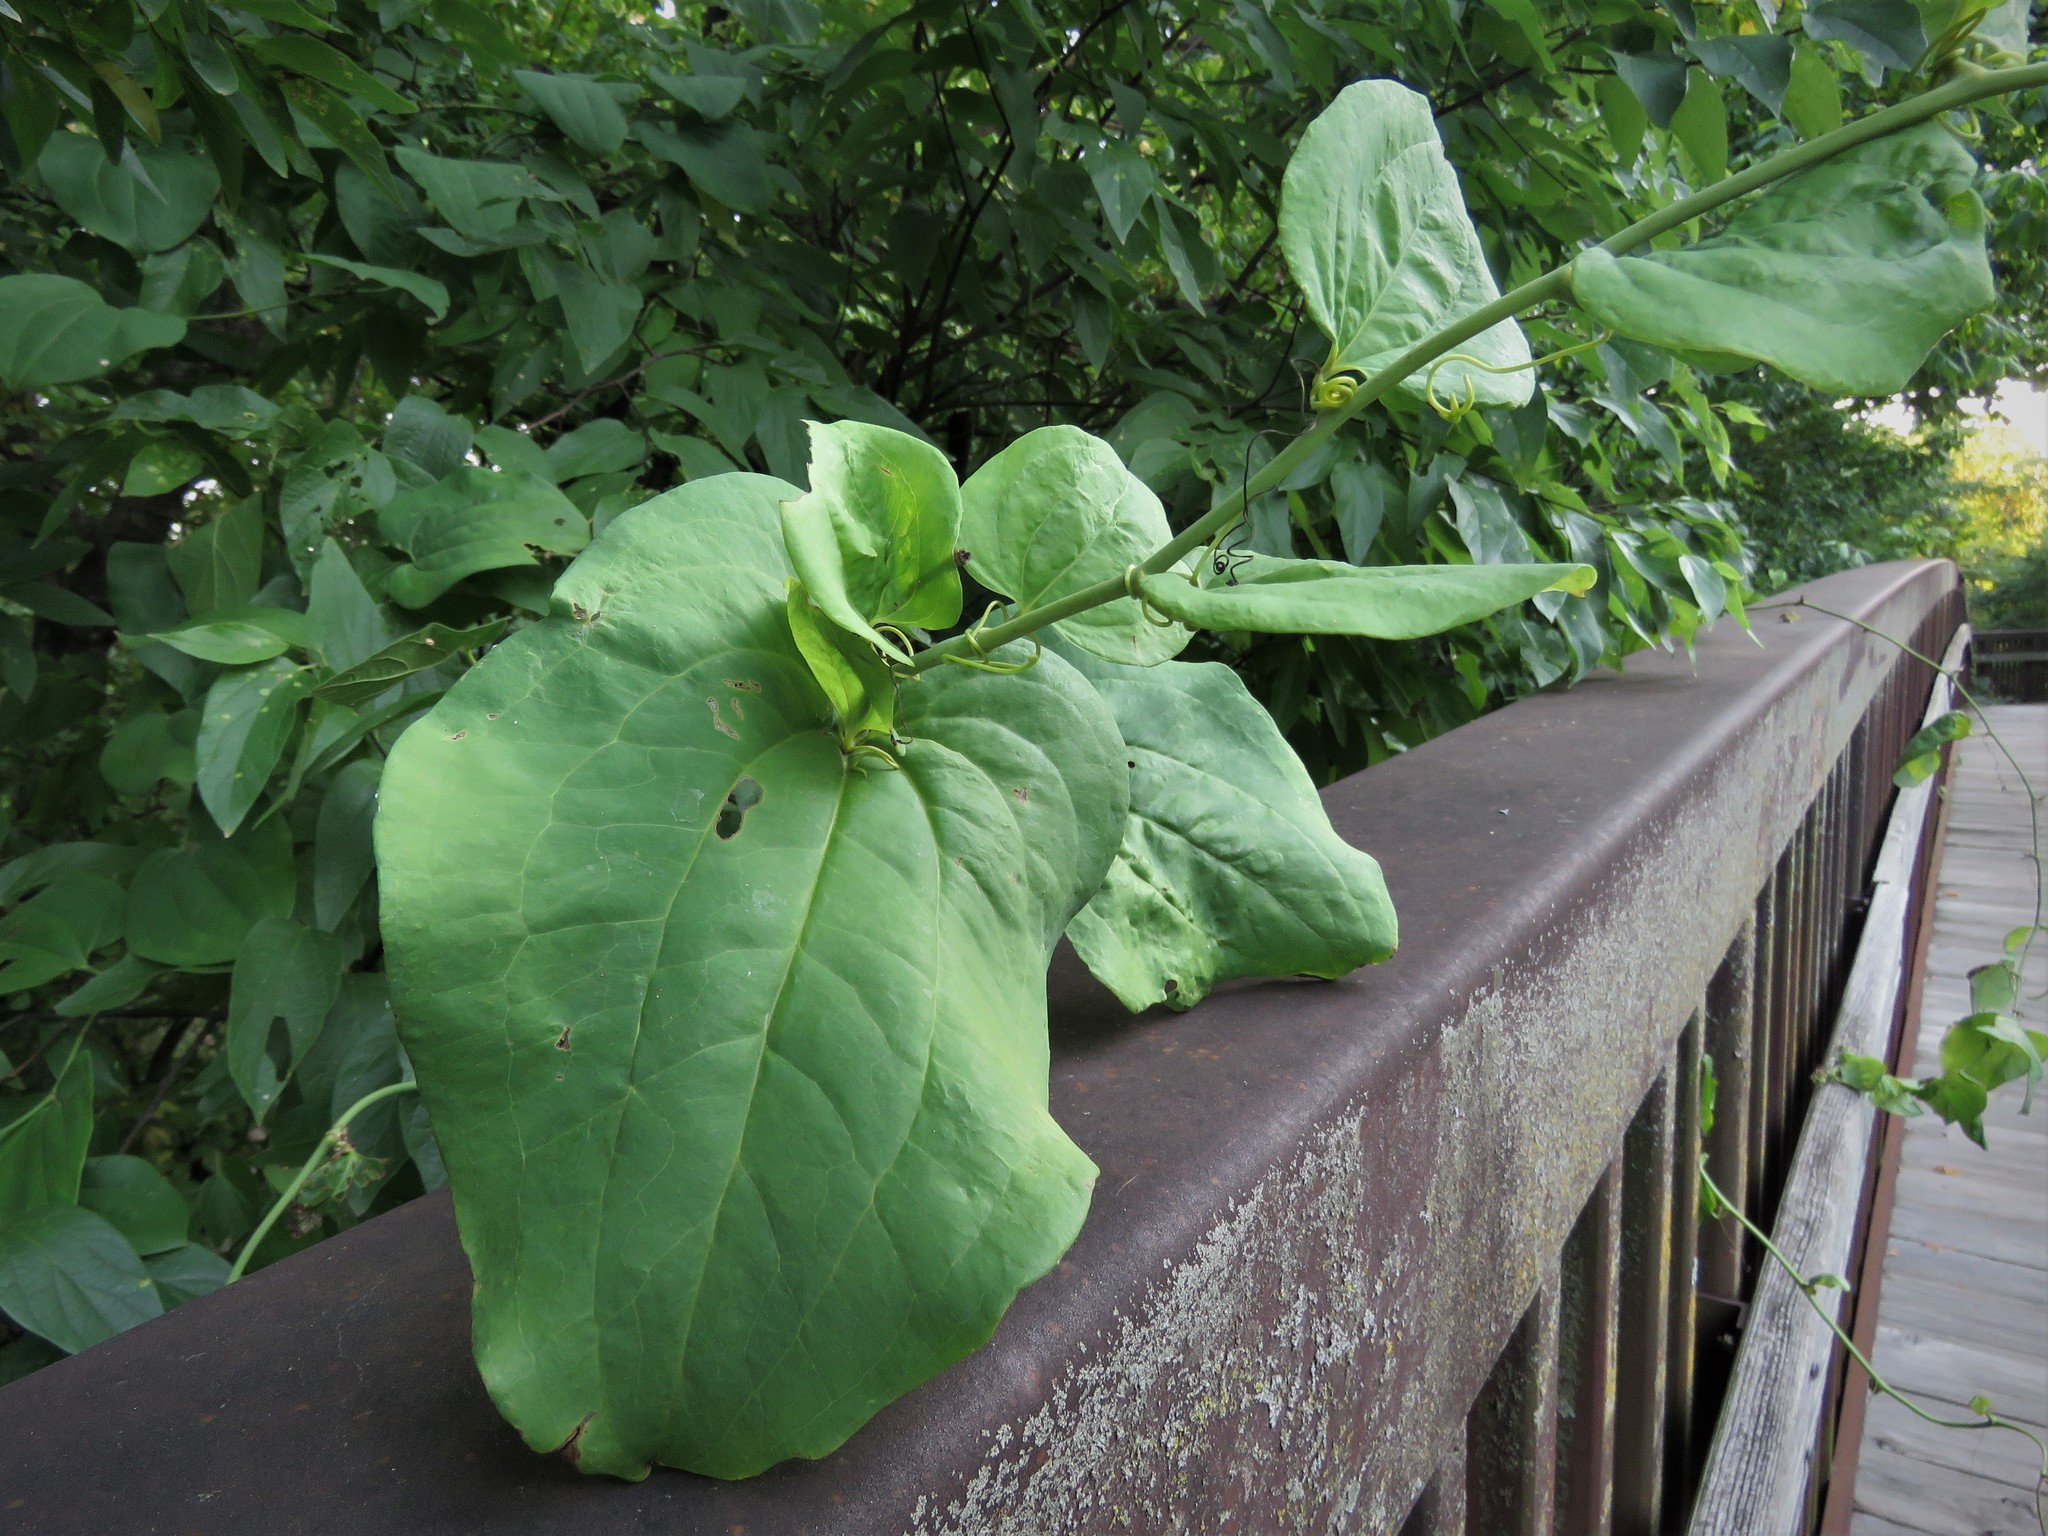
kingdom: Plantae
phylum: Tracheophyta
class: Liliopsida
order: Liliales
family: Smilacaceae
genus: Smilax
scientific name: Smilax rotundifolia
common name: Bullbriar
